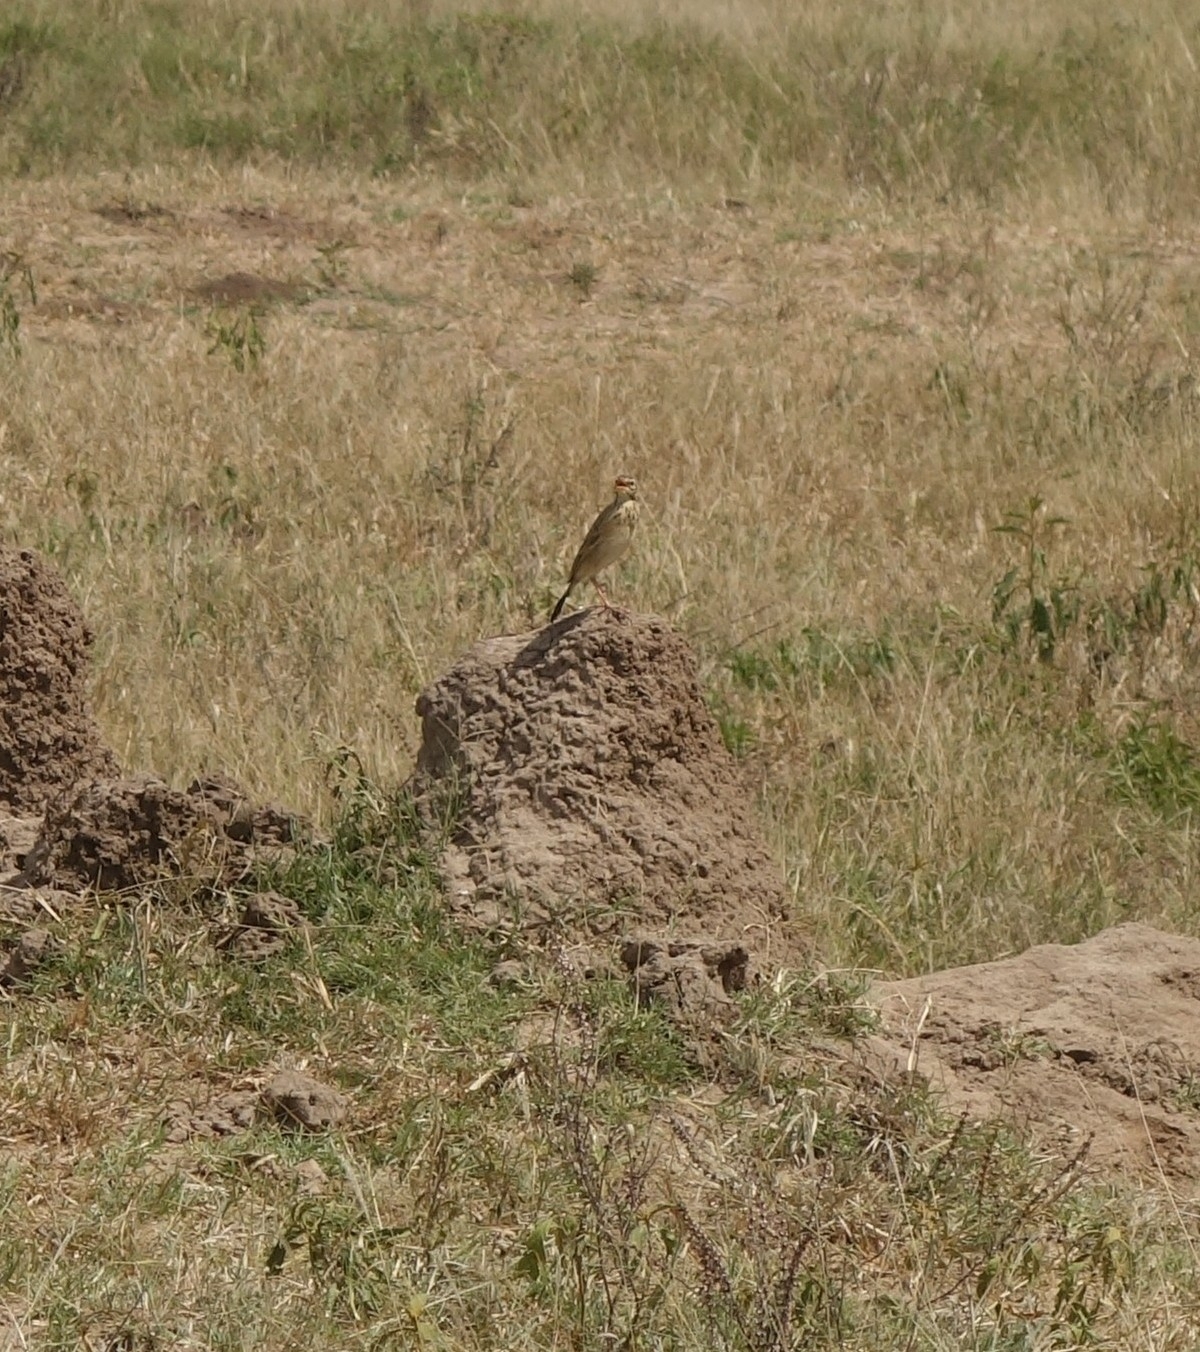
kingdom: Animalia
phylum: Chordata
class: Aves
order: Passeriformes
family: Motacillidae
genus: Anthus
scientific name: Anthus cinnamomeus
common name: African pipit
